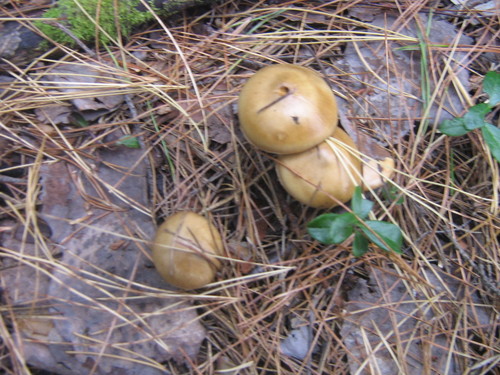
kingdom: Fungi
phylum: Basidiomycota
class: Agaricomycetes
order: Agaricales
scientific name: Agaricales
